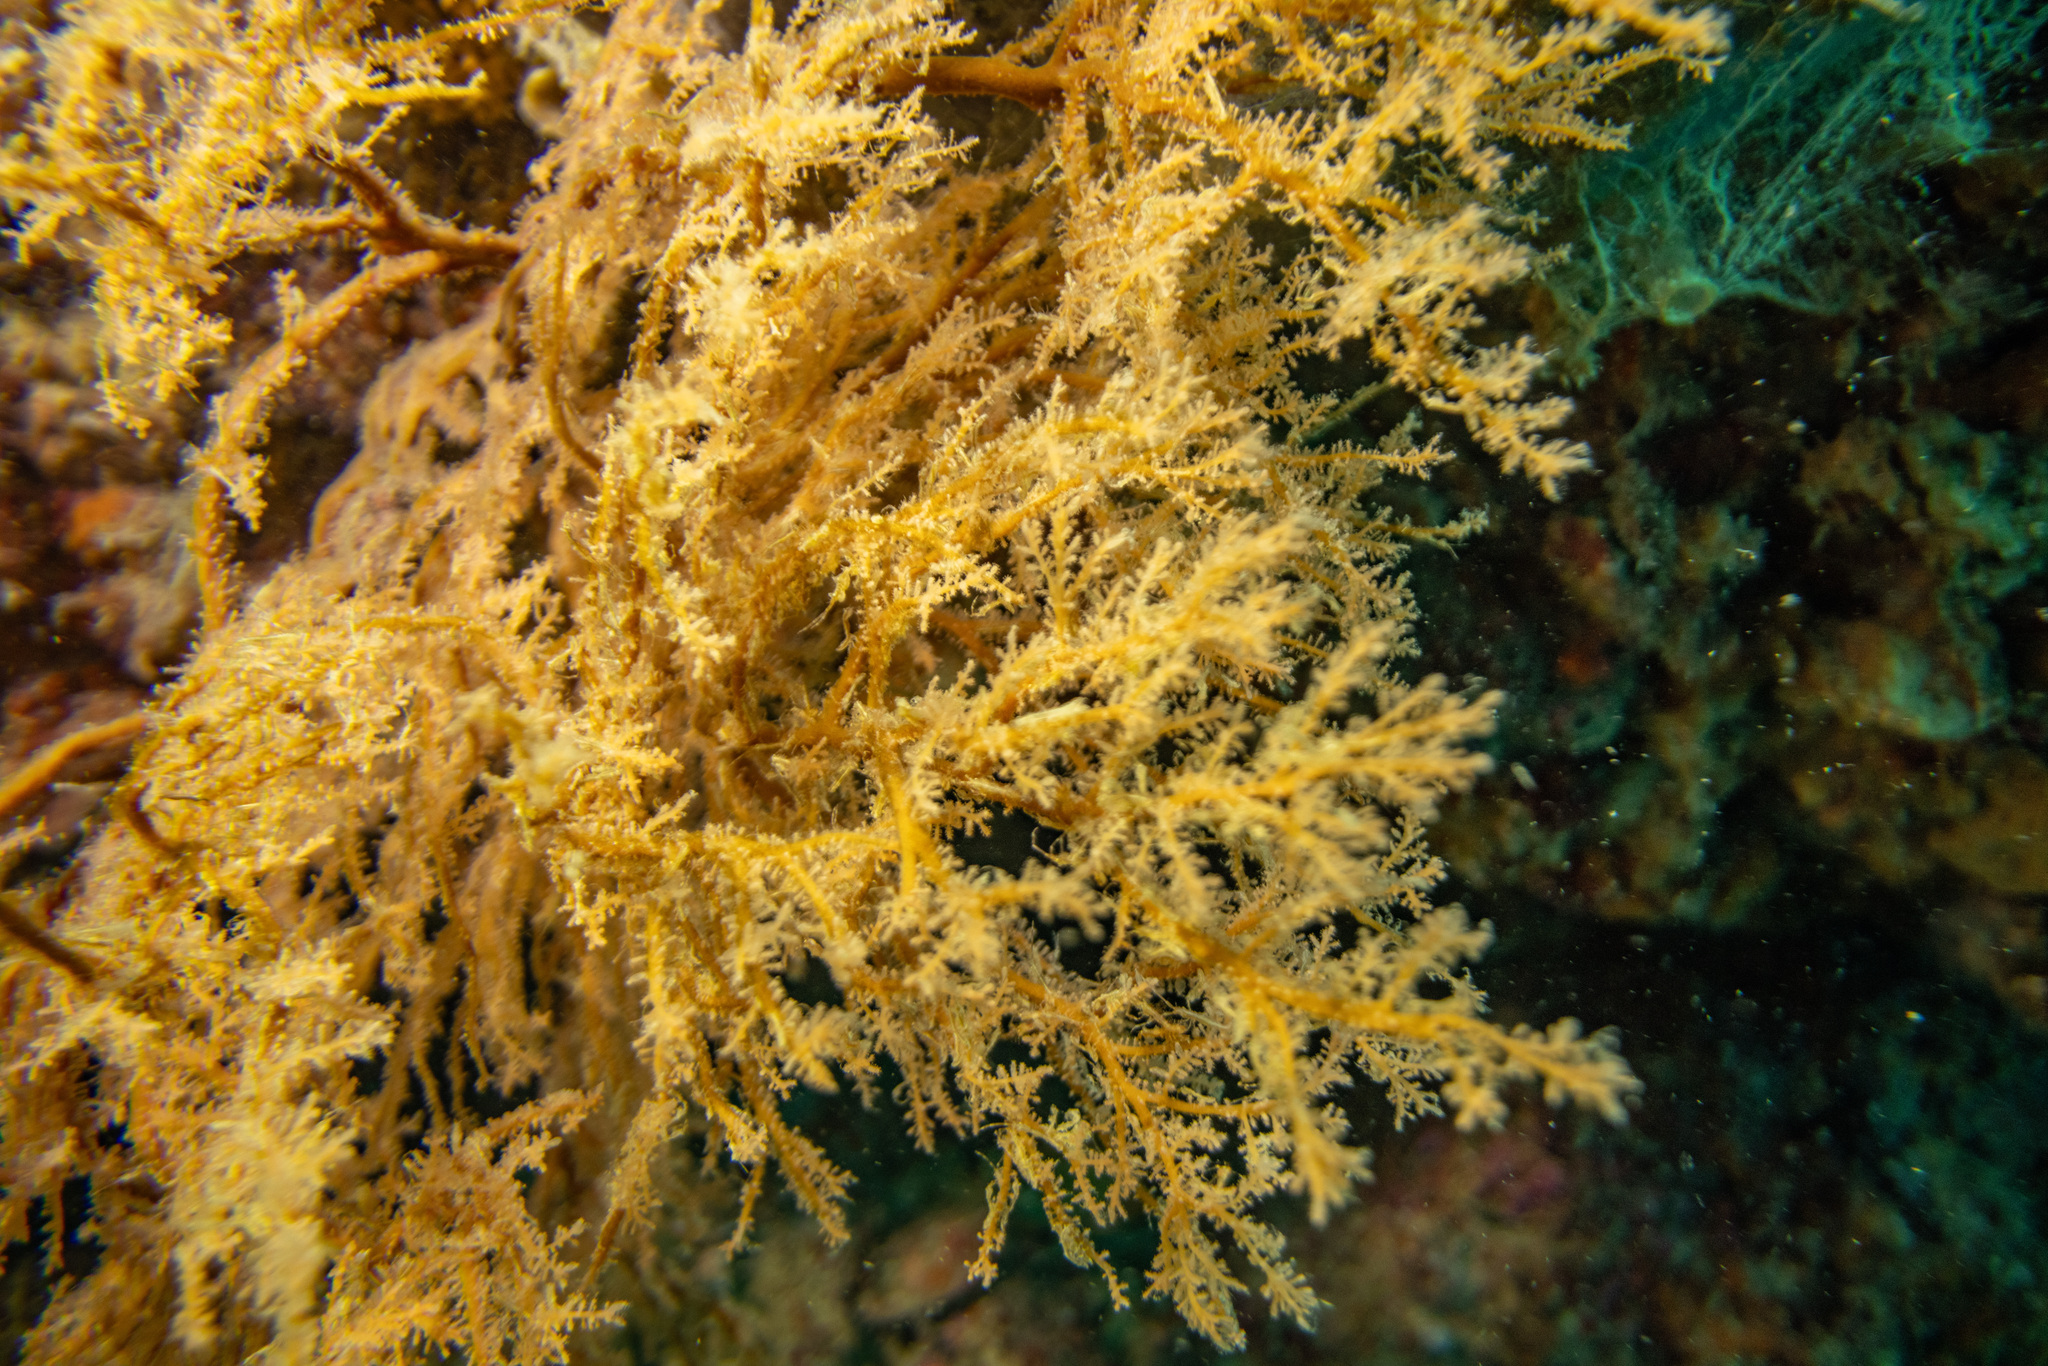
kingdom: Animalia
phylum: Cnidaria
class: Hydrozoa
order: Anthoathecata
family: Solanderiidae
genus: Solanderia
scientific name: Solanderia ericopsis
